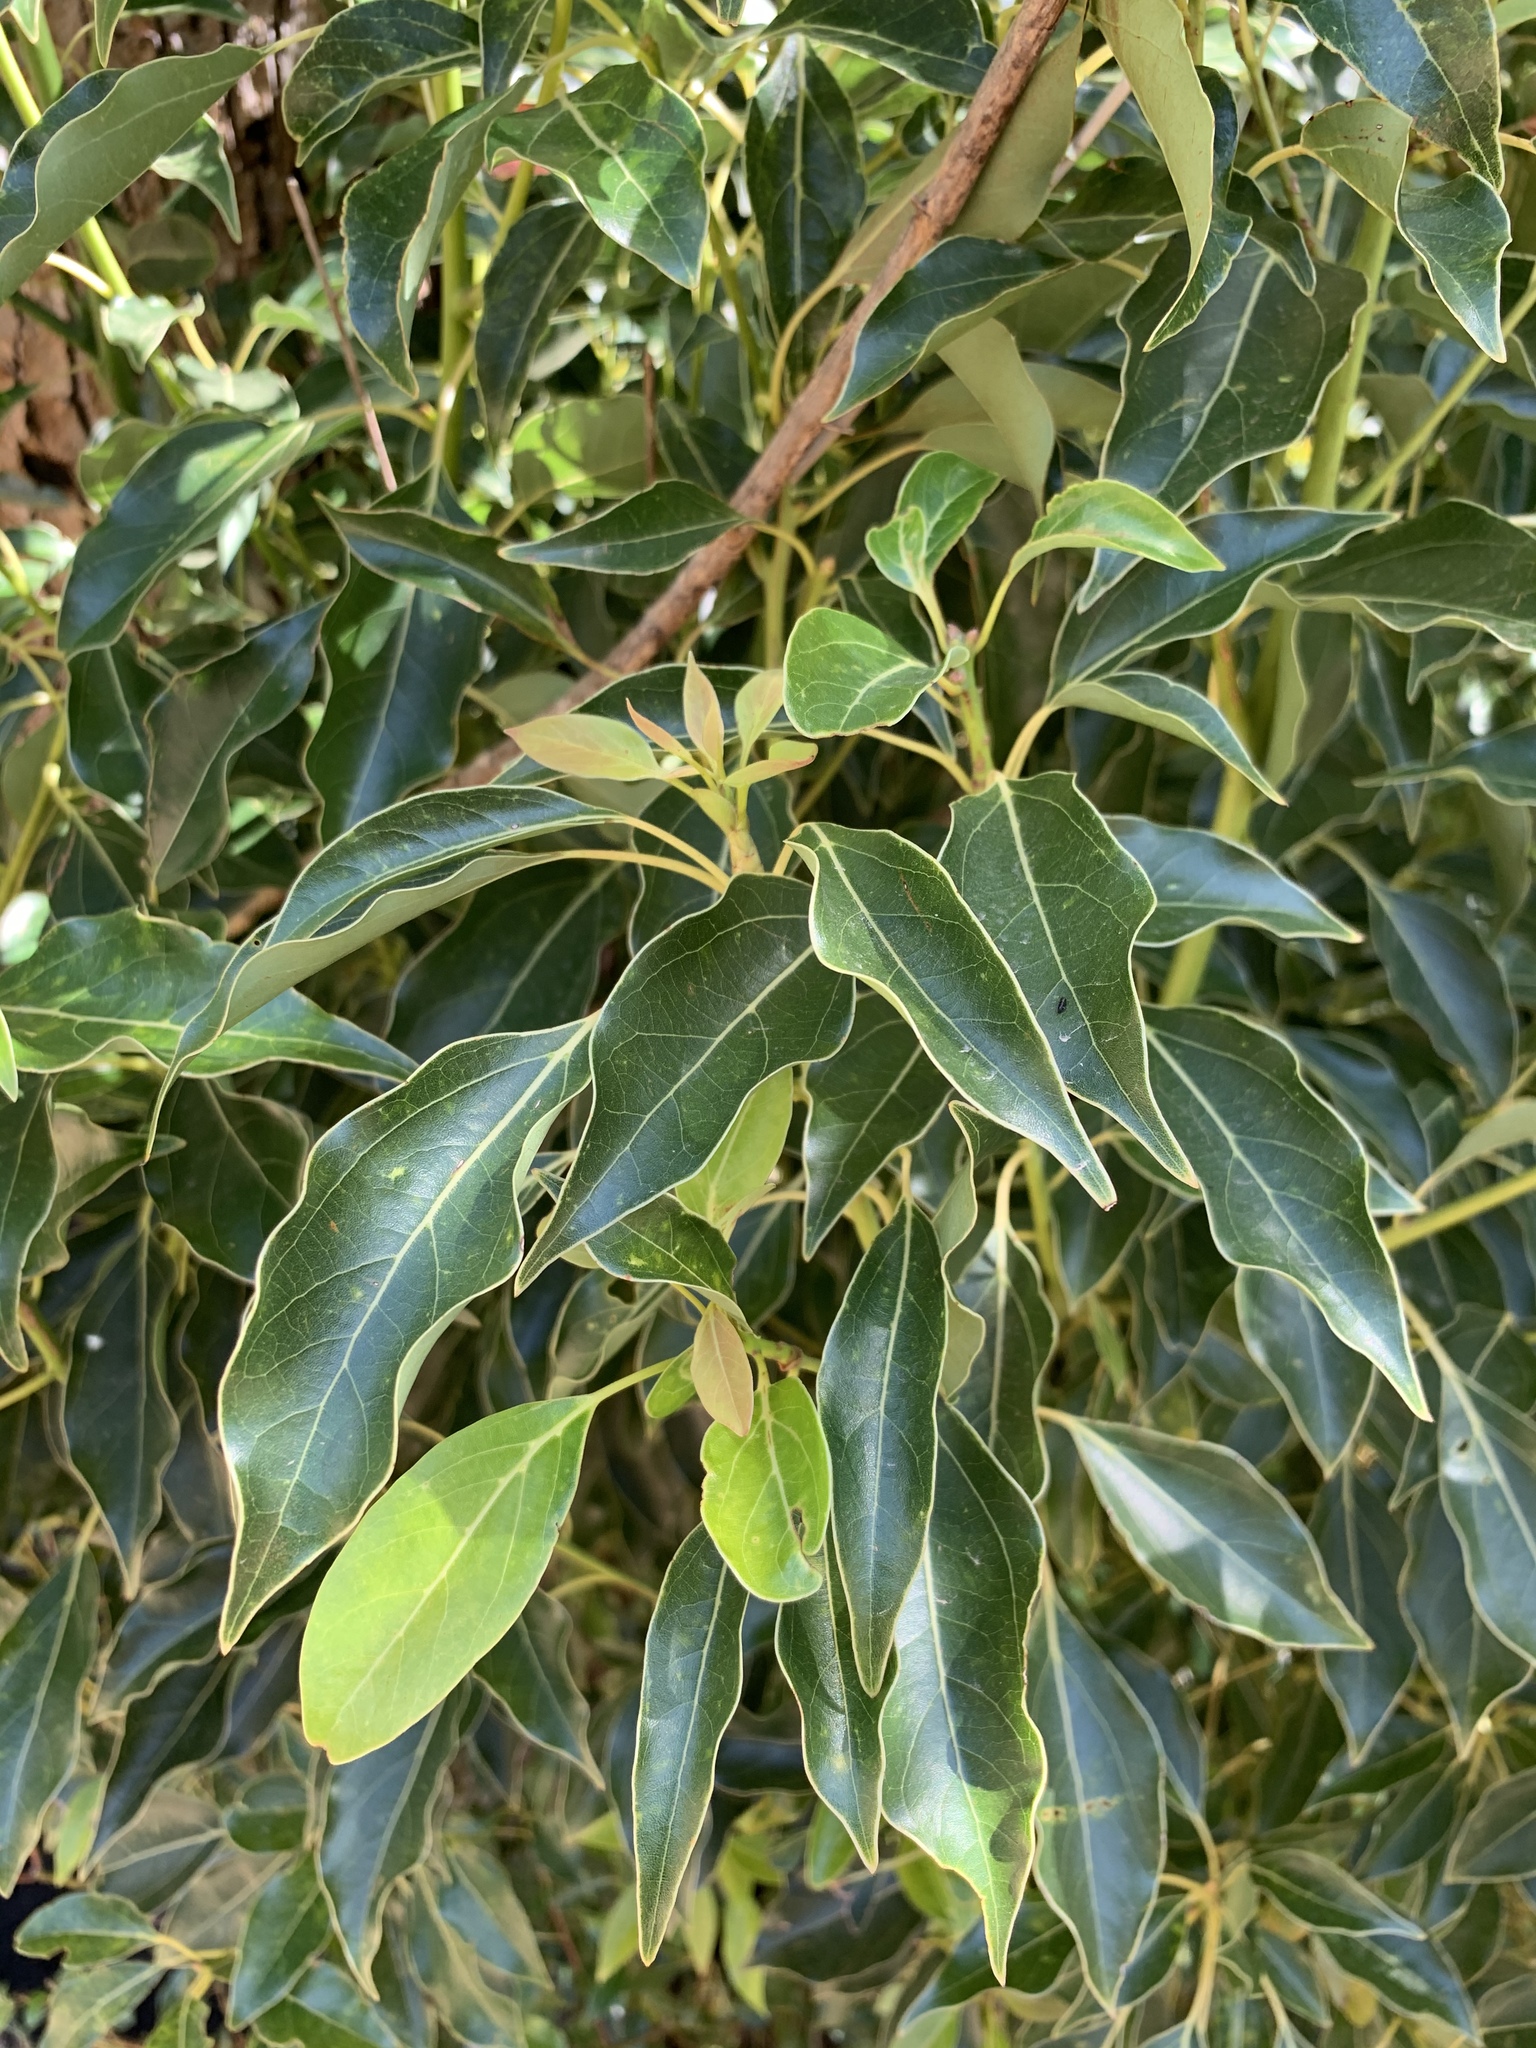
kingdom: Plantae
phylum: Tracheophyta
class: Magnoliopsida
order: Laurales
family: Lauraceae
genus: Cinnamomum
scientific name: Cinnamomum camphora
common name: Camphortree
